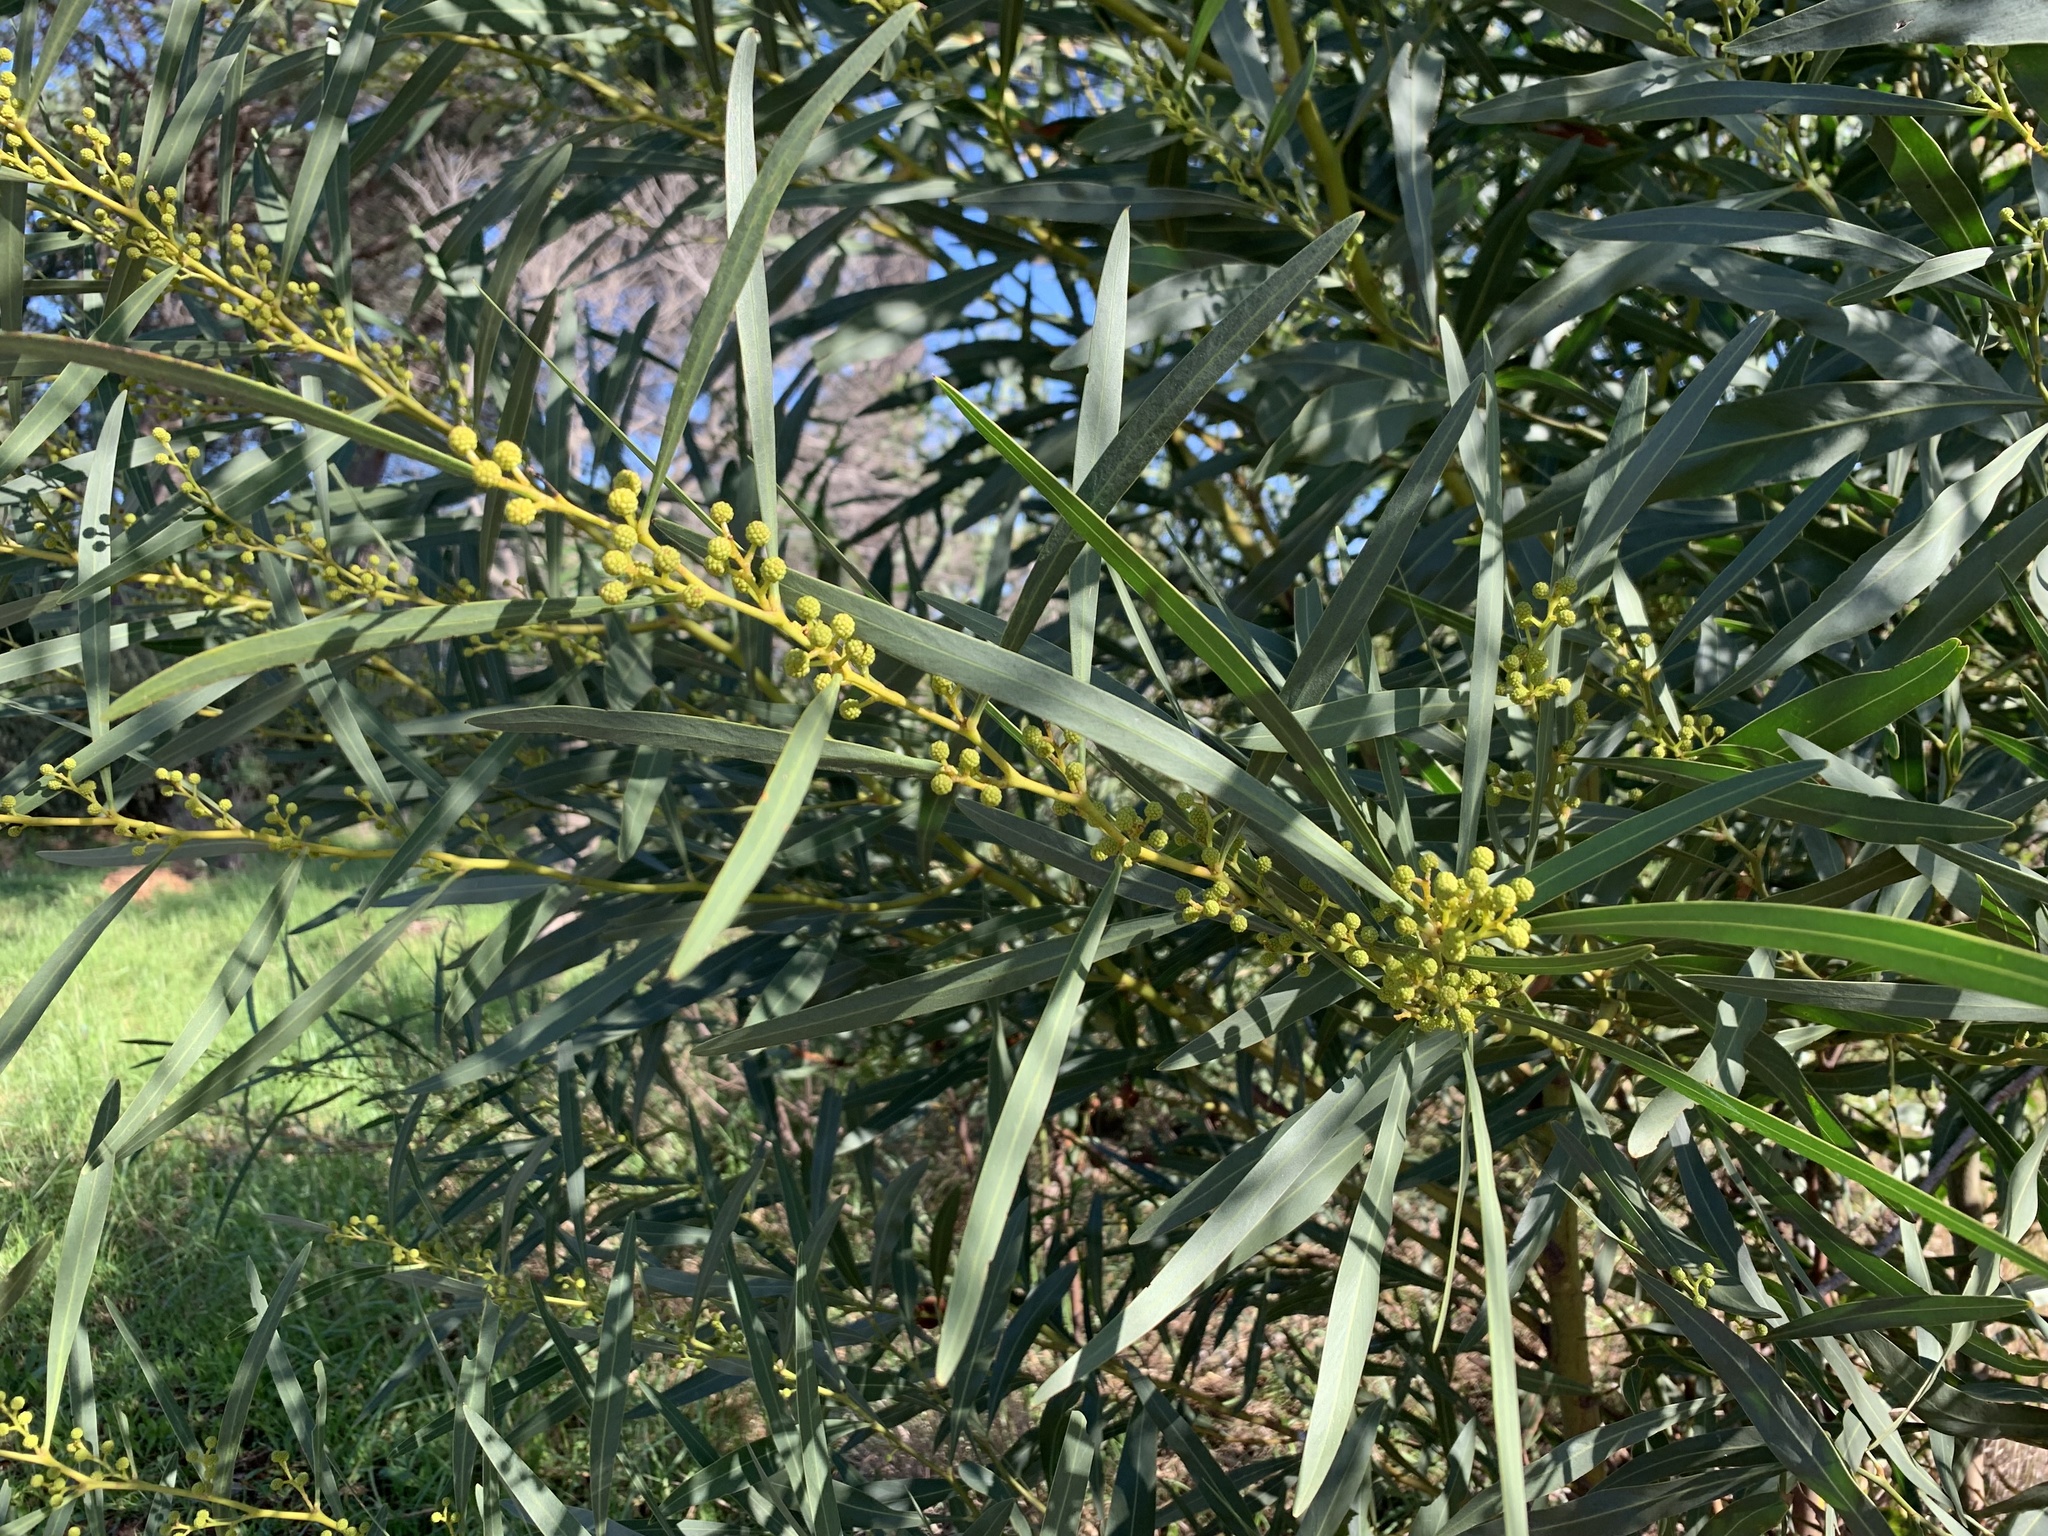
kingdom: Plantae
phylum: Tracheophyta
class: Magnoliopsida
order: Fabales
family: Fabaceae
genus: Acacia
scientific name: Acacia saligna
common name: Orange wattle
